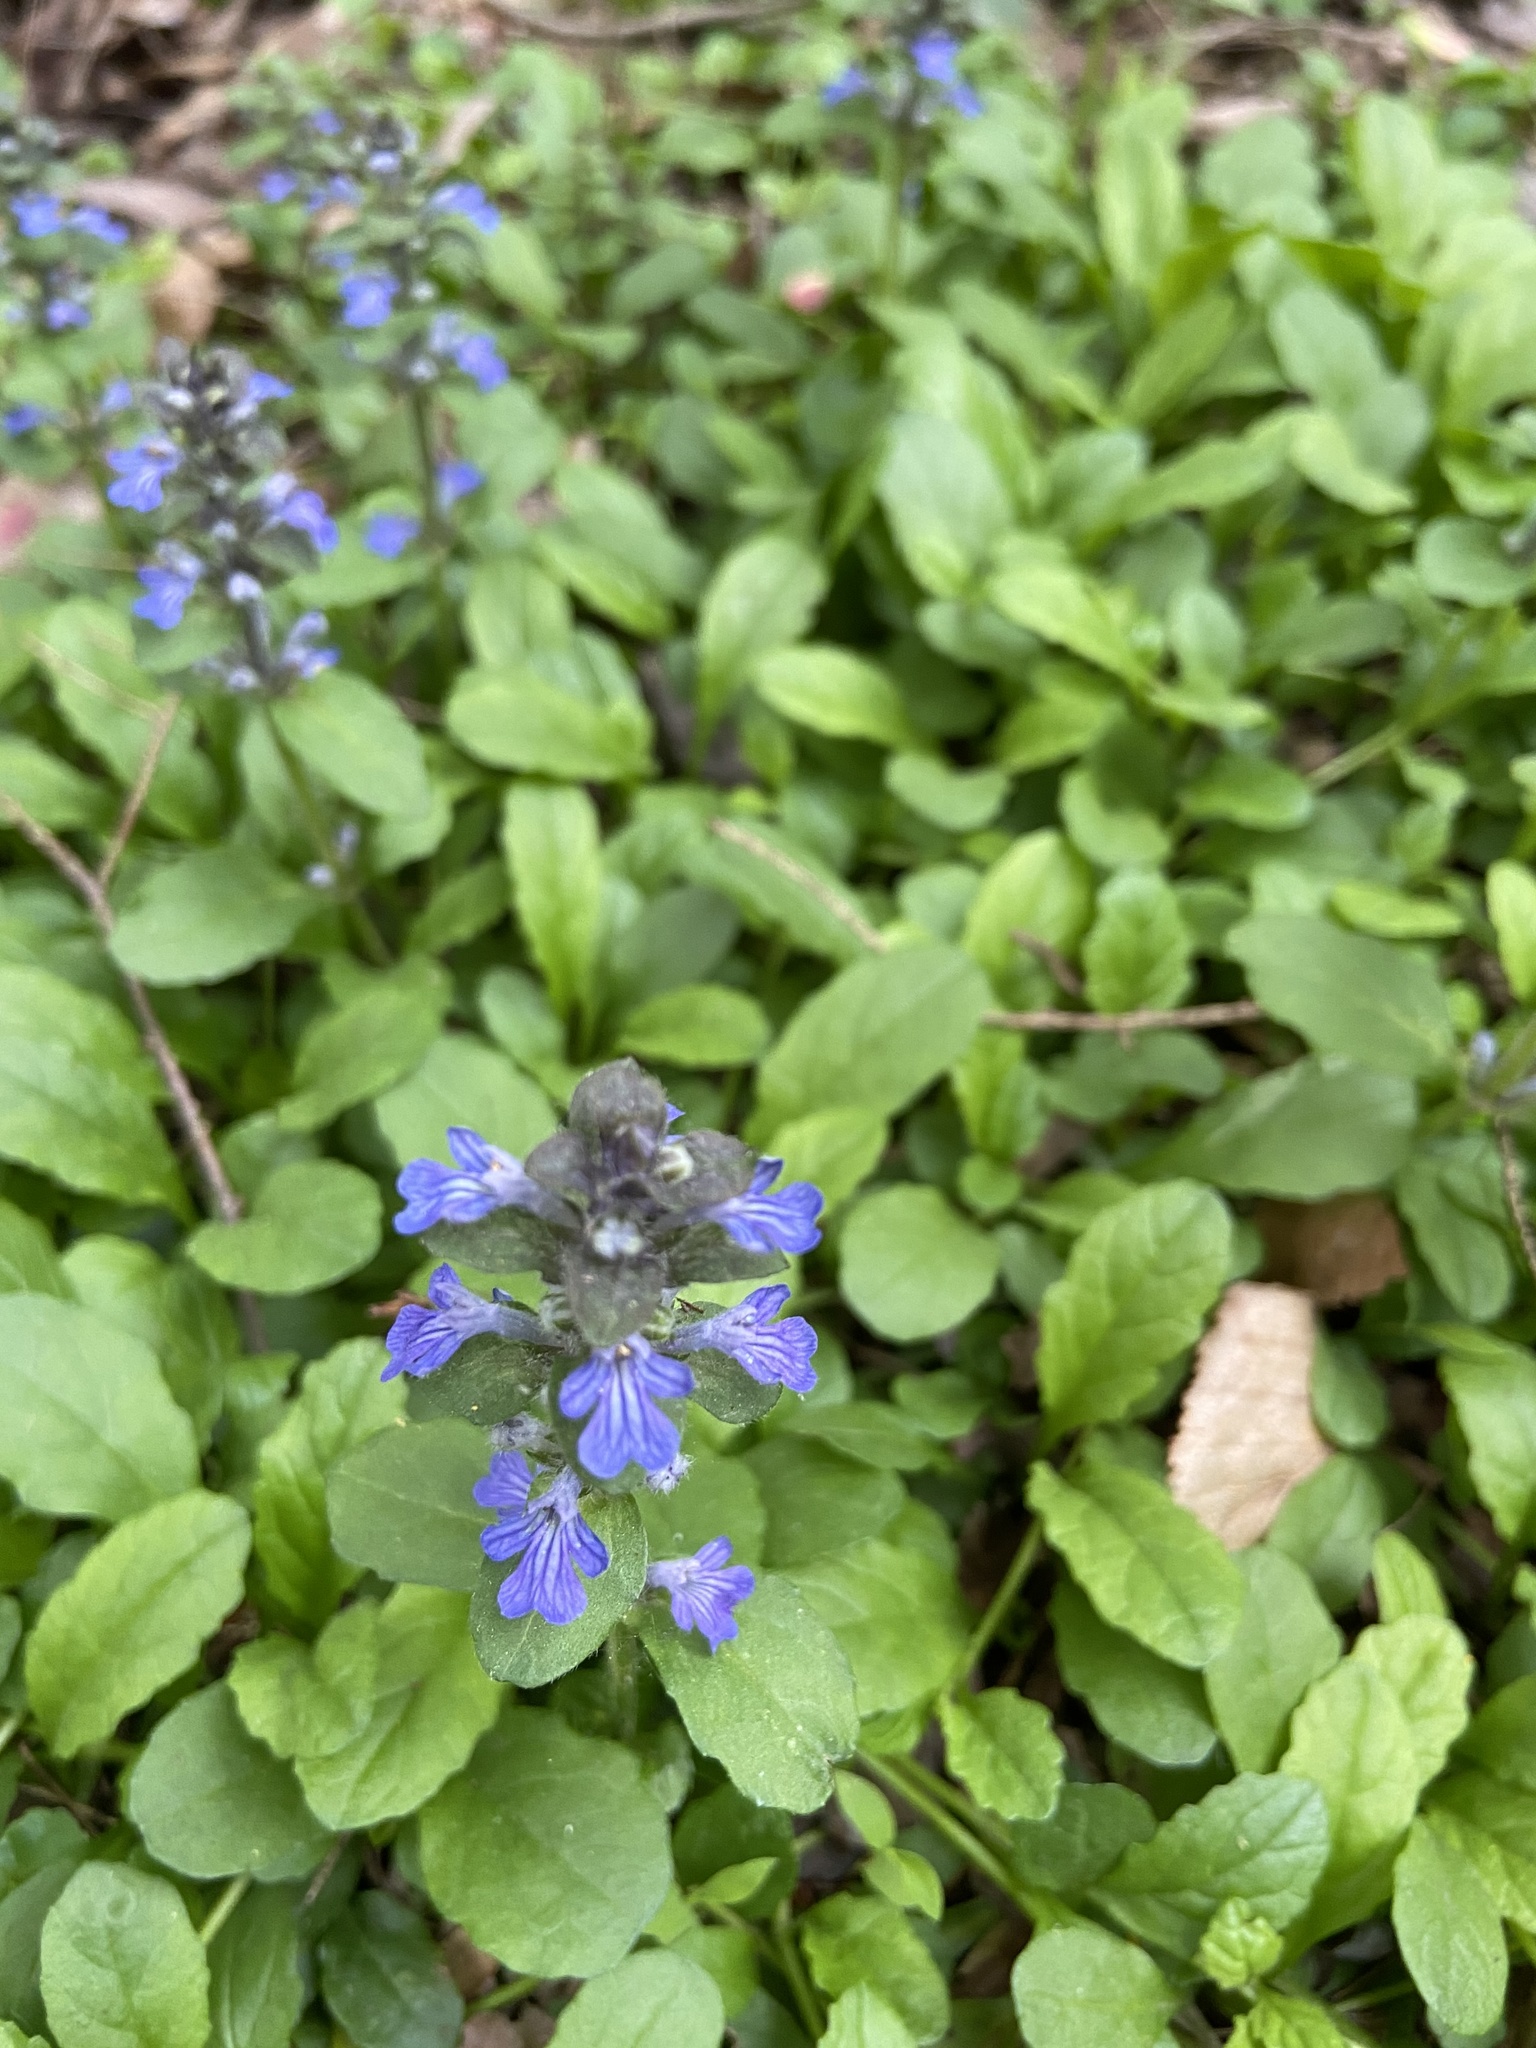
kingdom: Plantae
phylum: Tracheophyta
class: Magnoliopsida
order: Lamiales
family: Lamiaceae
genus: Ajuga
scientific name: Ajuga reptans
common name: Bugle
